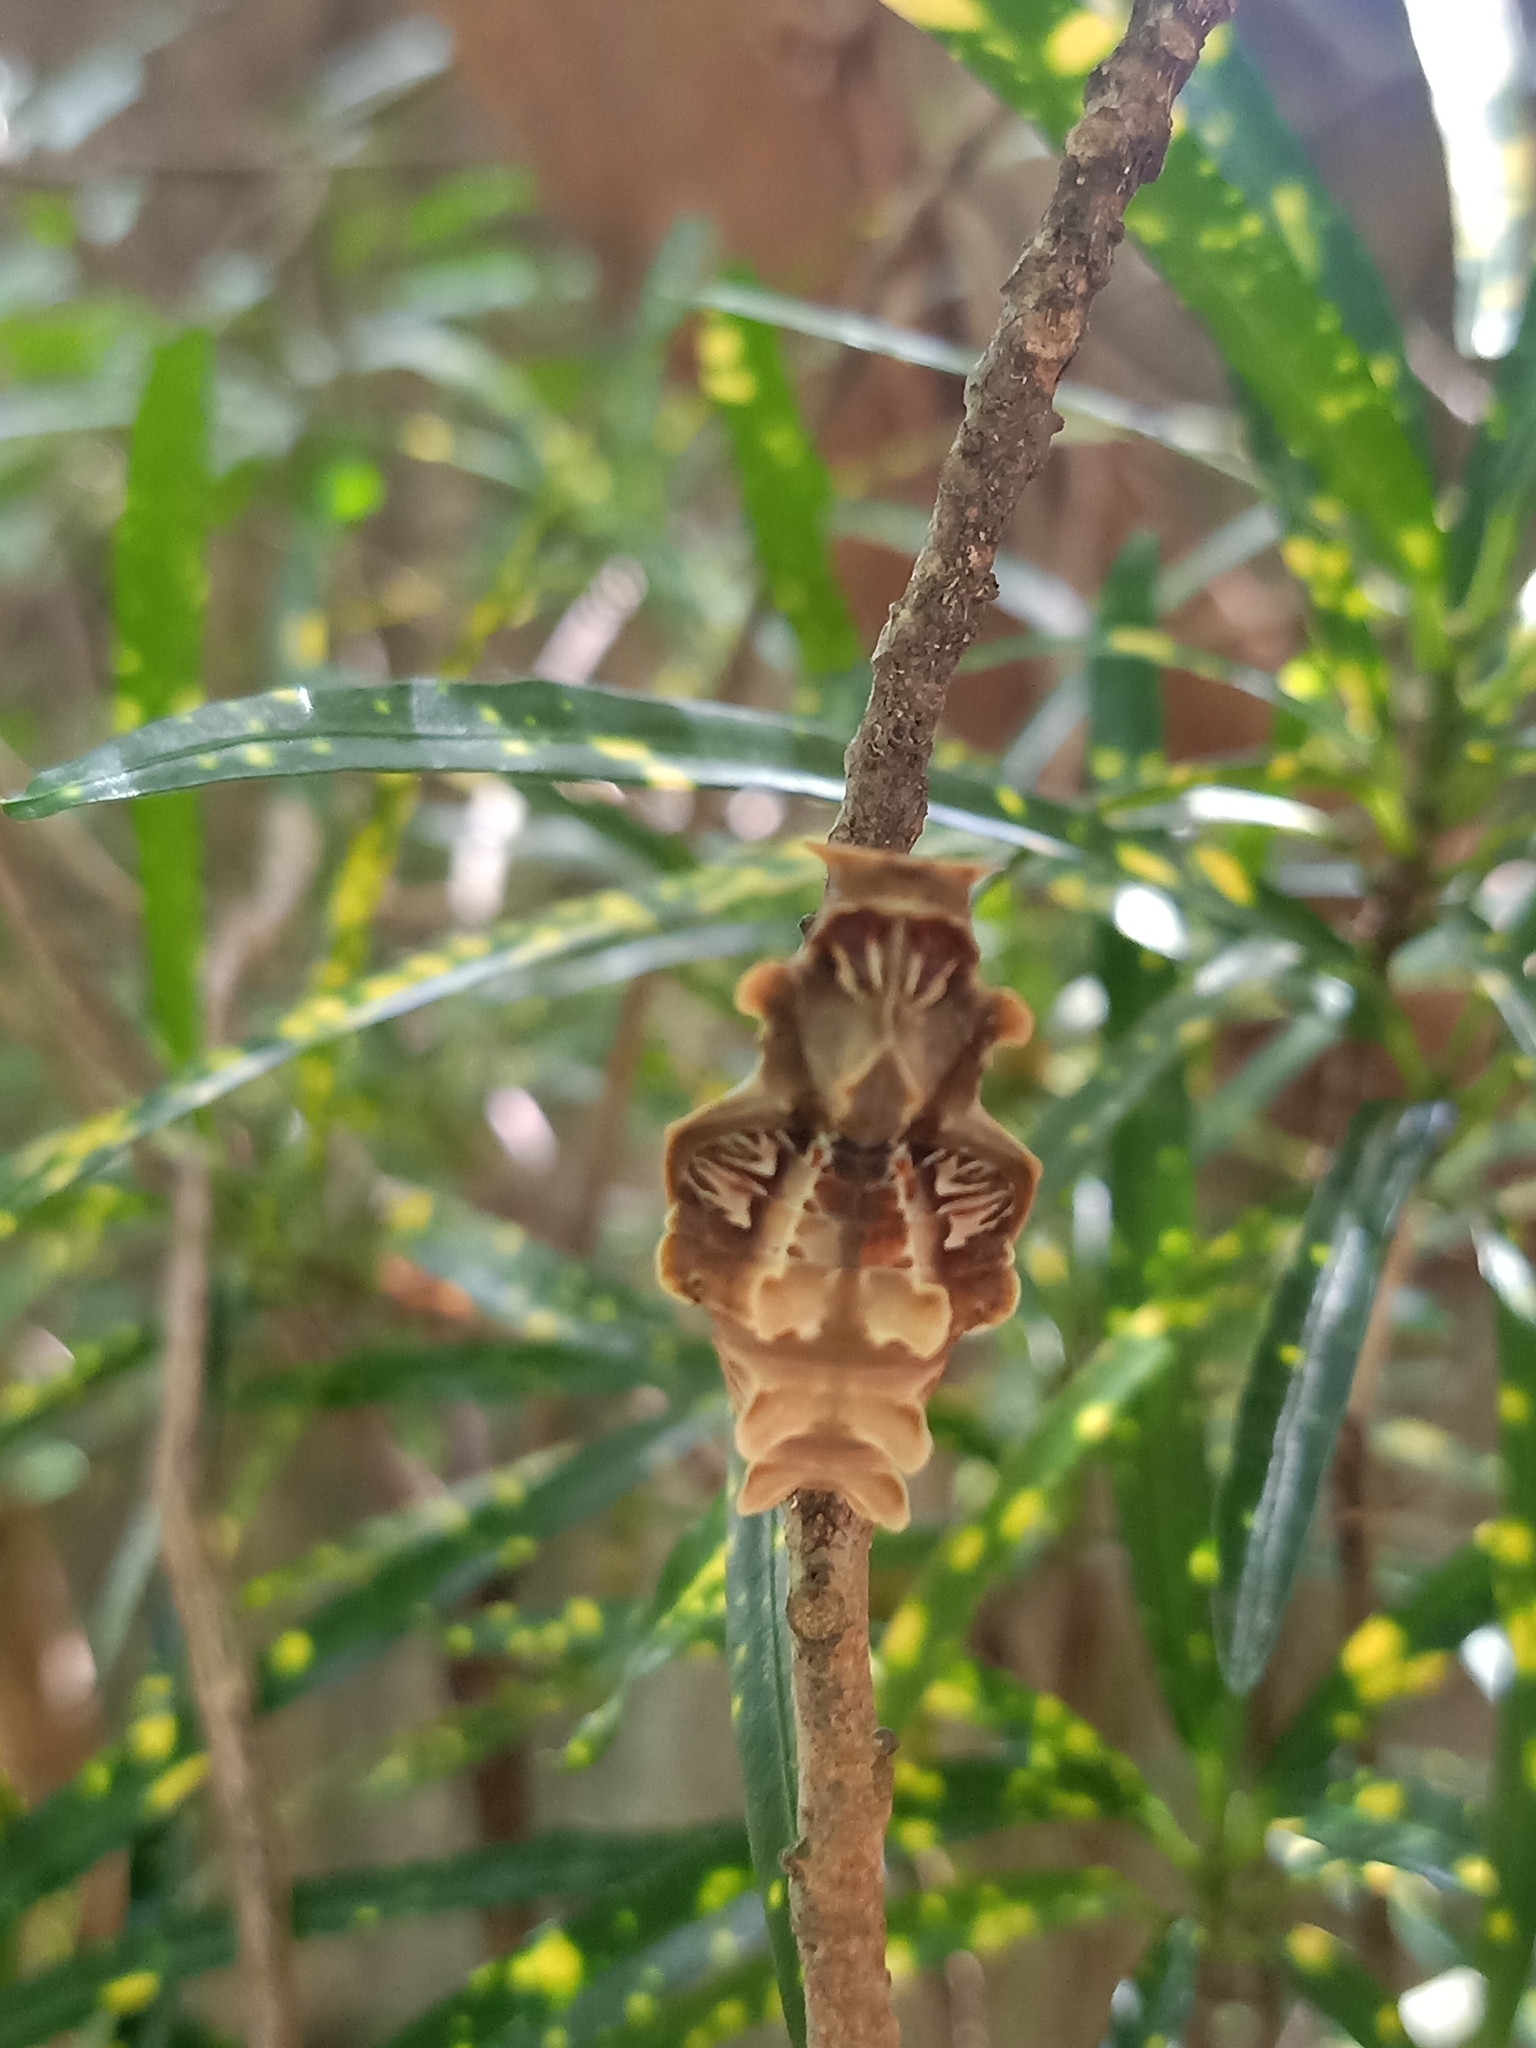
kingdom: Animalia
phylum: Arthropoda
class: Insecta
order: Lepidoptera
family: Papilionidae
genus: Pachliopta
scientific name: Pachliopta aristolochiae
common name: Common rose
